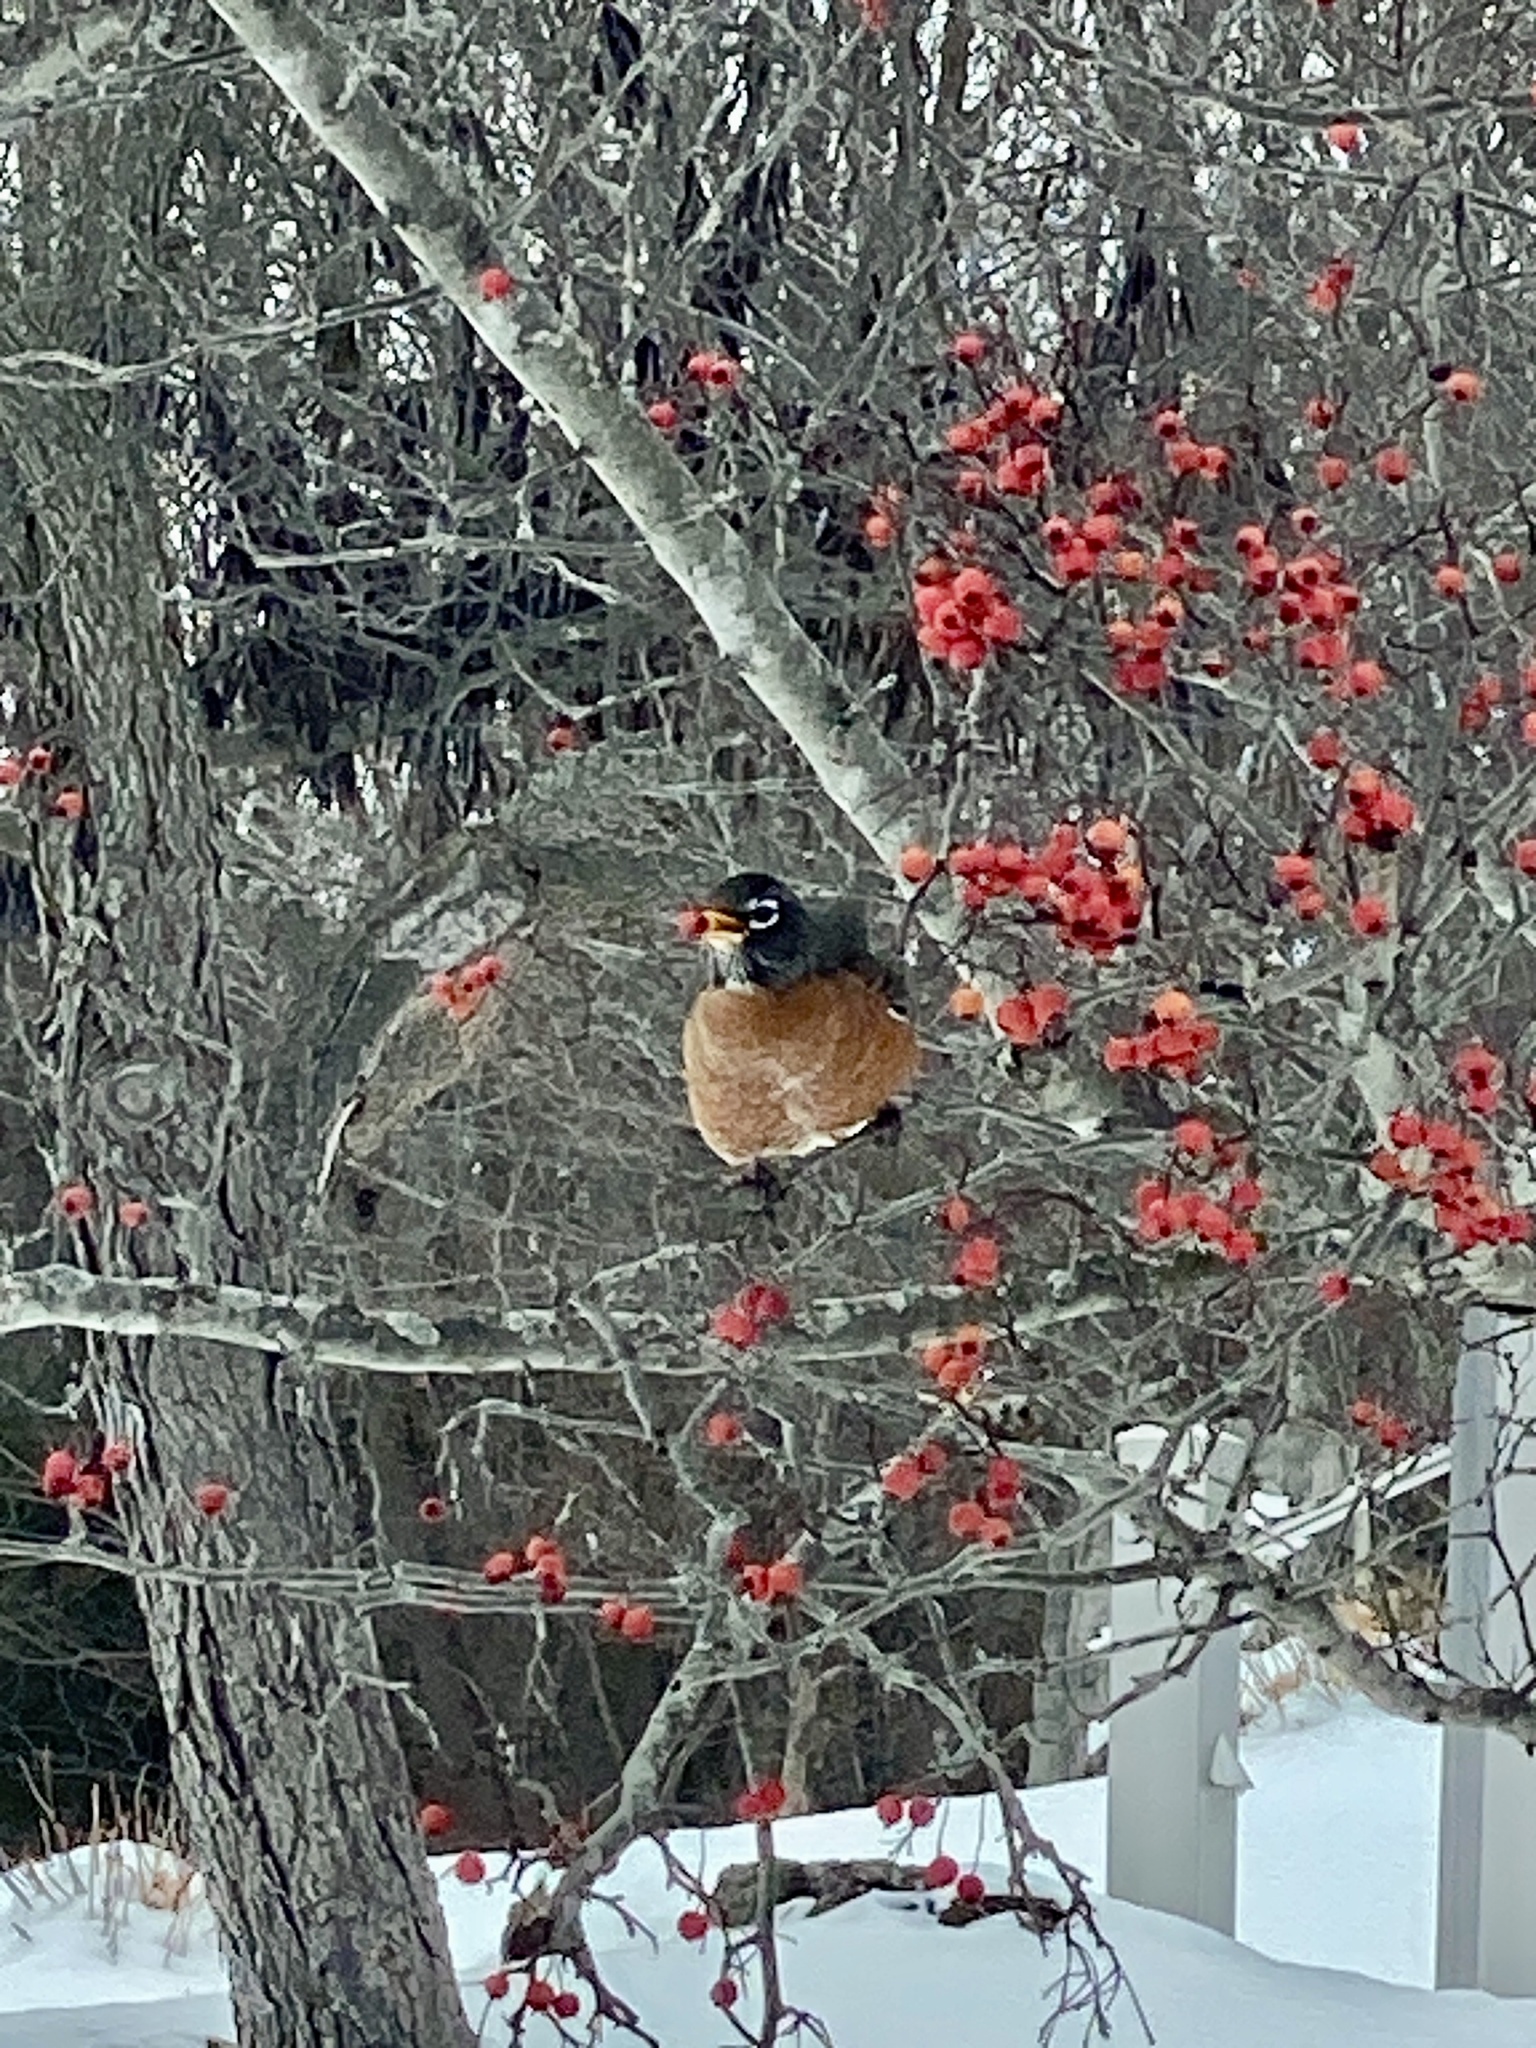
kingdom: Animalia
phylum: Chordata
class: Aves
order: Passeriformes
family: Turdidae
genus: Turdus
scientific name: Turdus migratorius
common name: American robin
